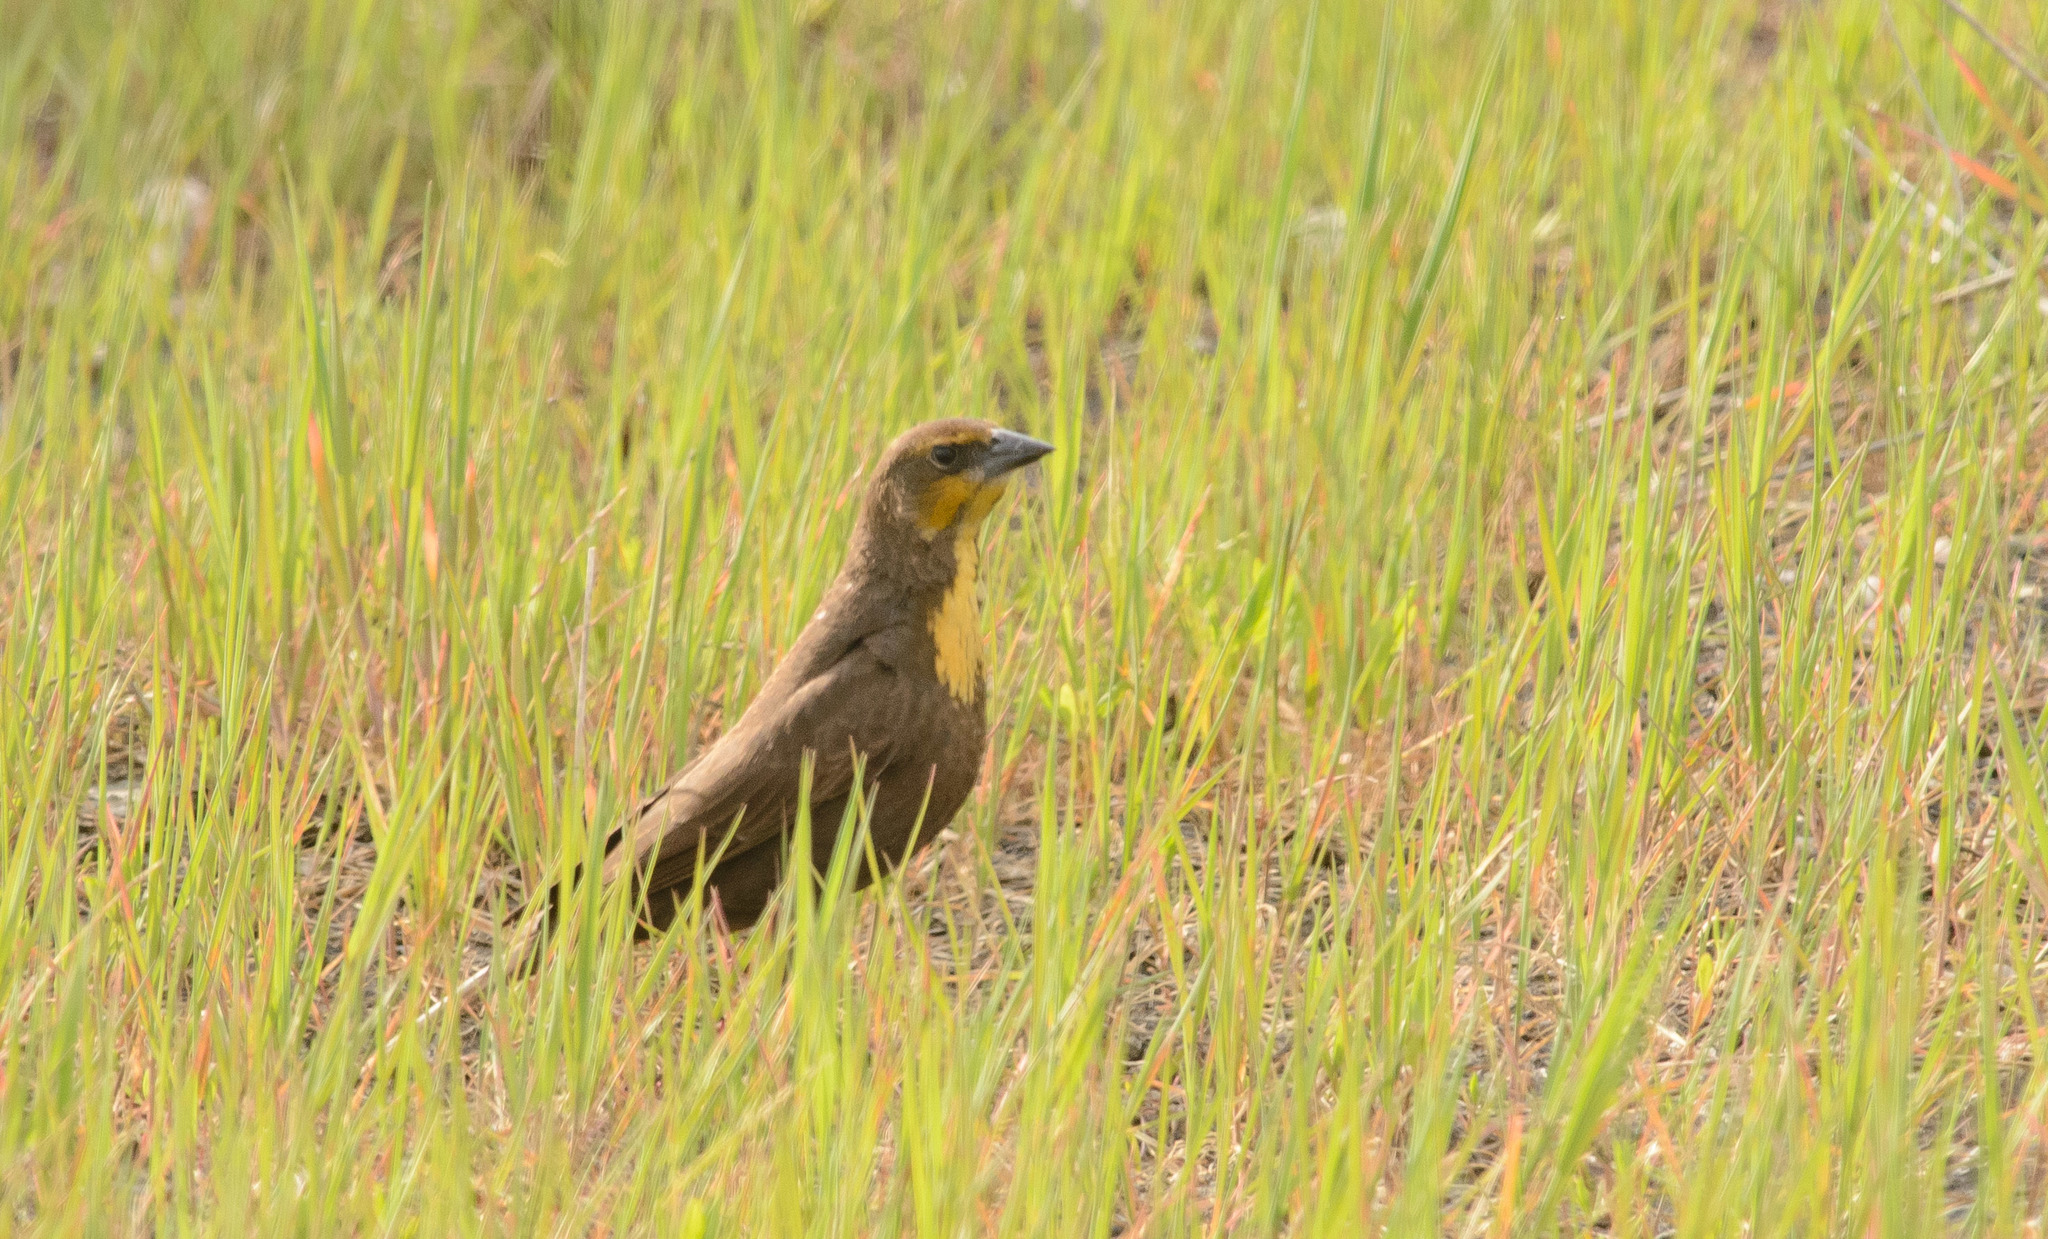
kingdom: Animalia
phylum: Chordata
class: Aves
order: Passeriformes
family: Icteridae
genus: Xanthocephalus
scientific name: Xanthocephalus xanthocephalus
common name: Yellow-headed blackbird
